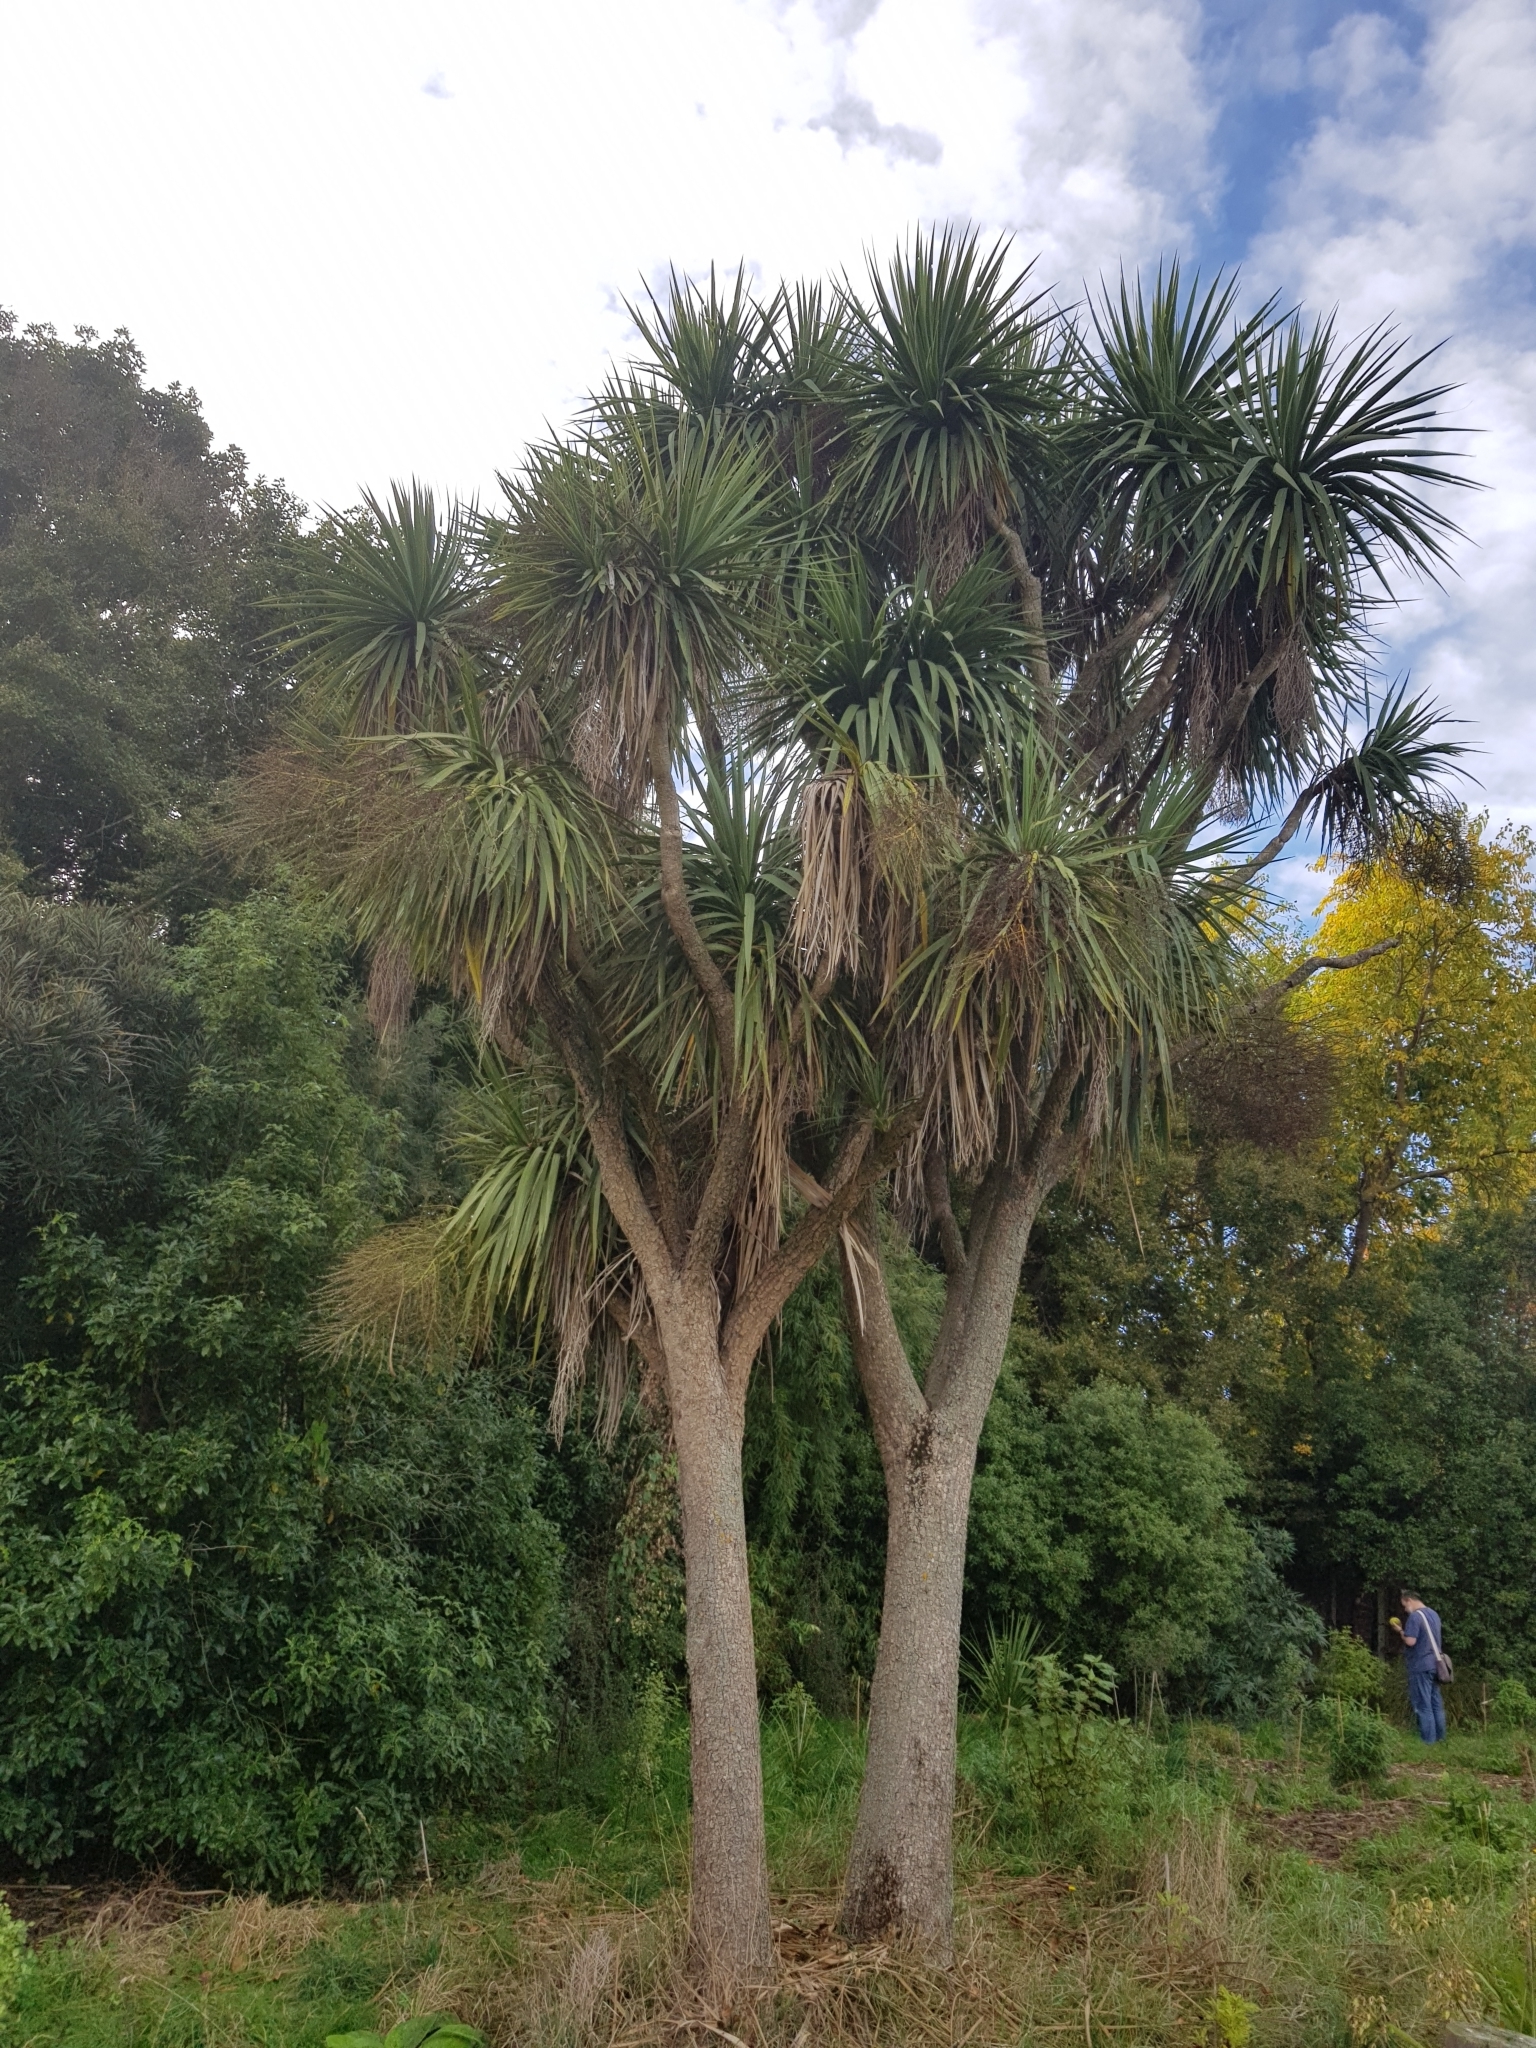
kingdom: Plantae
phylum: Tracheophyta
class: Liliopsida
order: Asparagales
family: Asparagaceae
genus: Cordyline
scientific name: Cordyline australis
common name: Cabbage-palm
